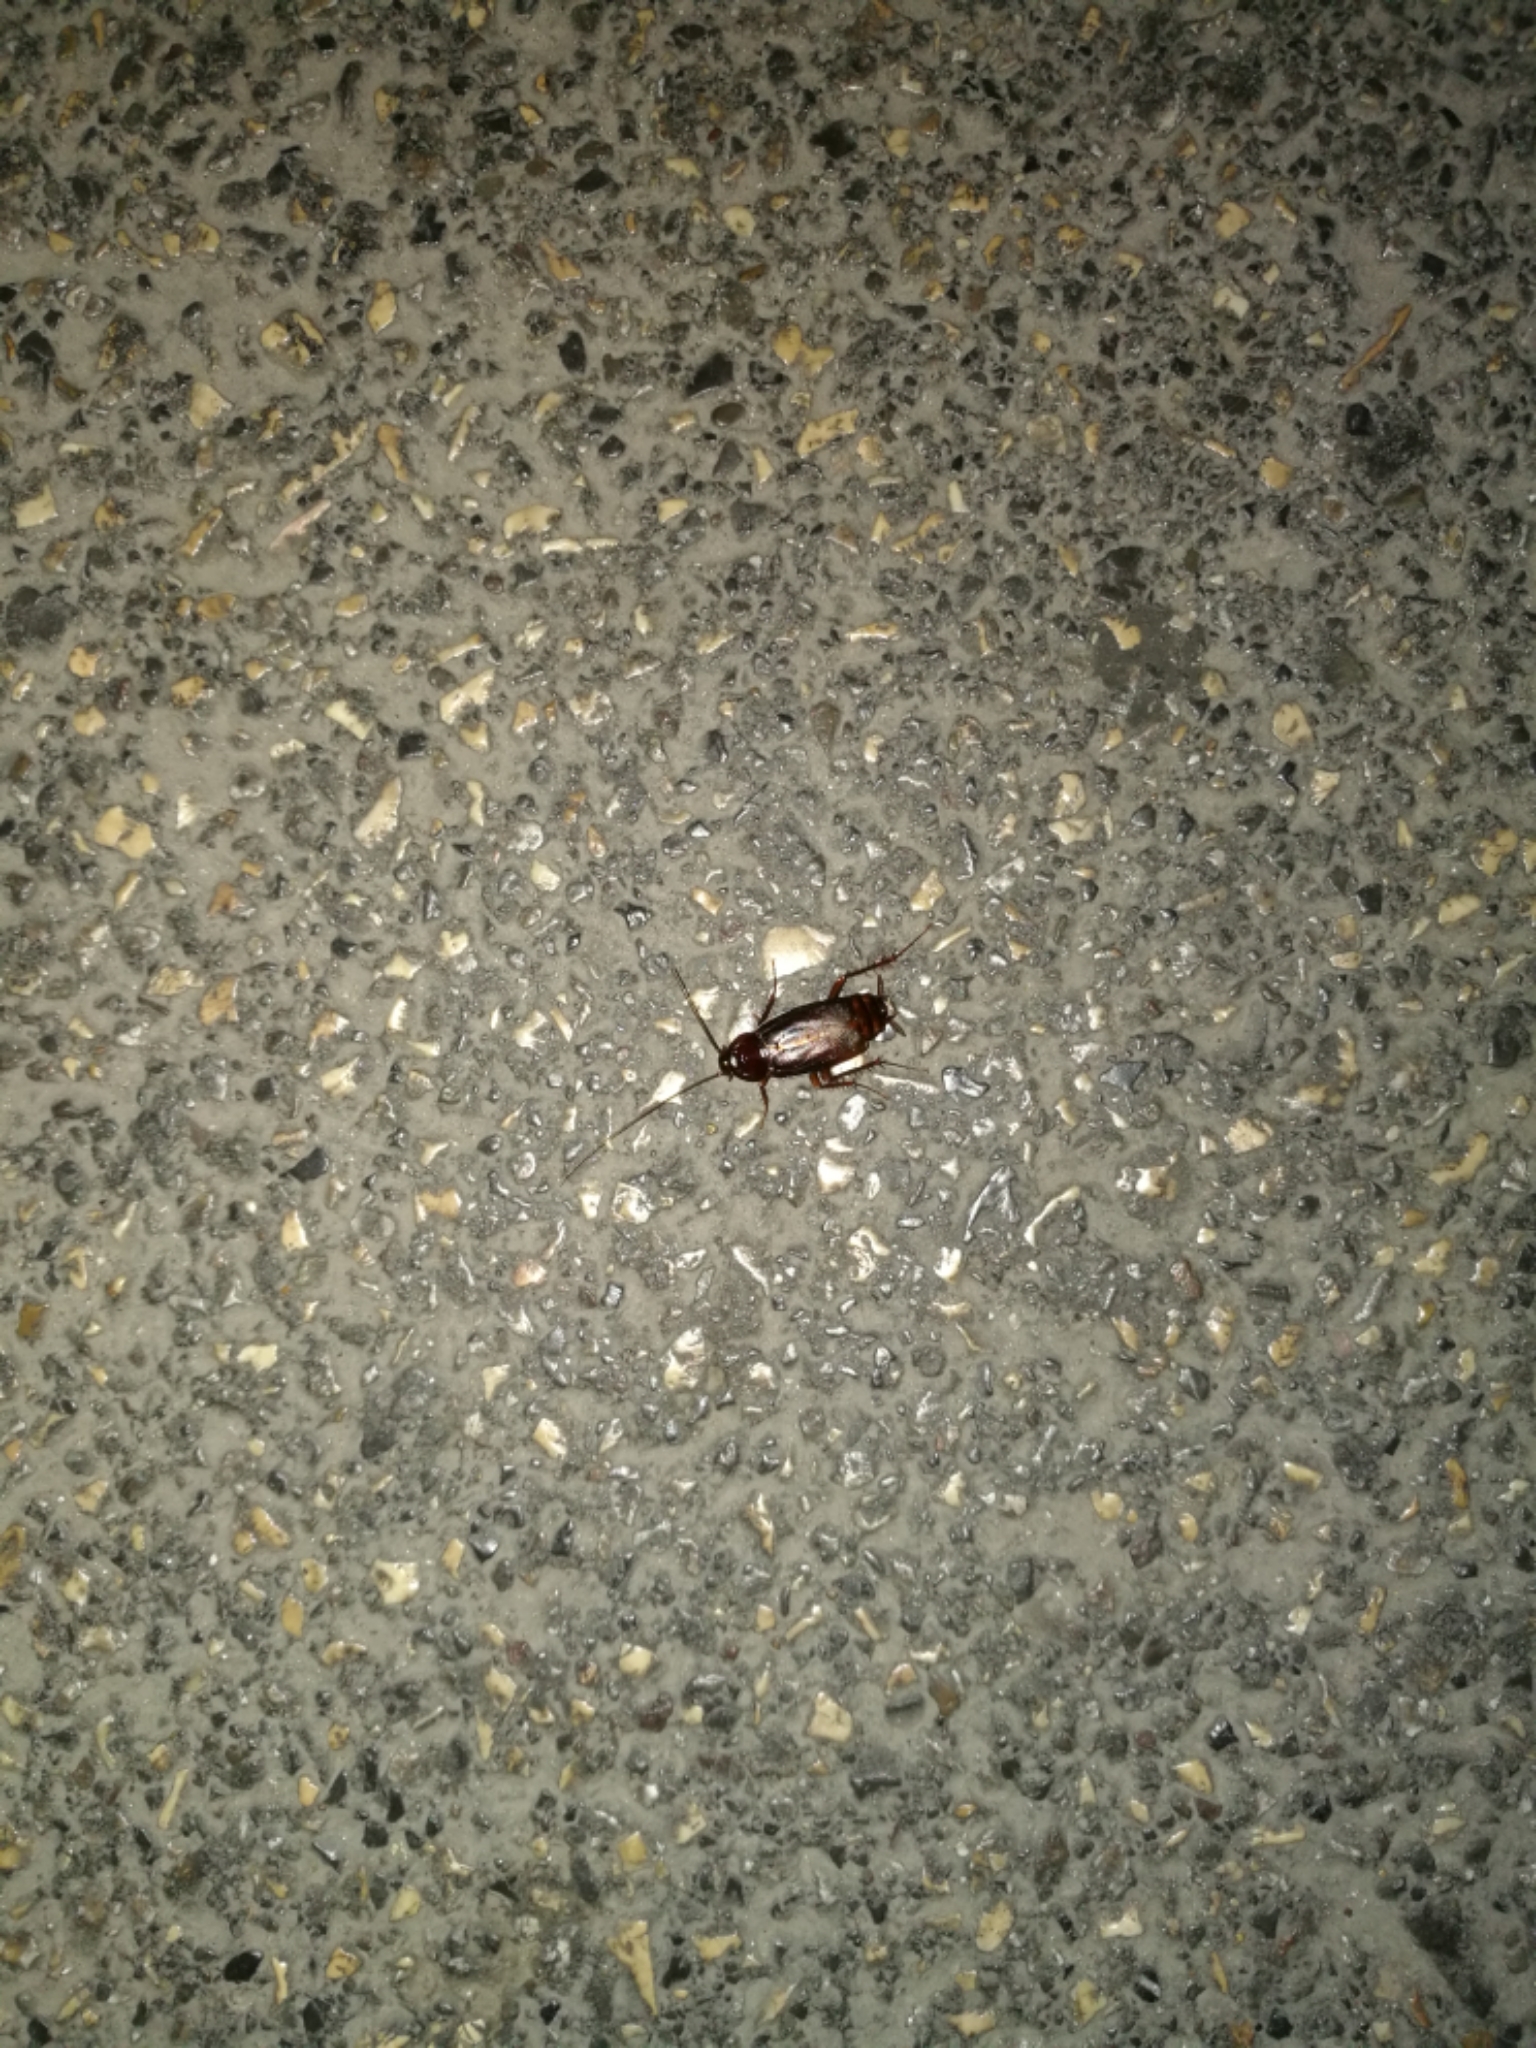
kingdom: Animalia
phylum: Arthropoda
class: Insecta
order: Blattodea
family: Blattidae
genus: Periplaneta
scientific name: Periplaneta americana
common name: American cockroach
